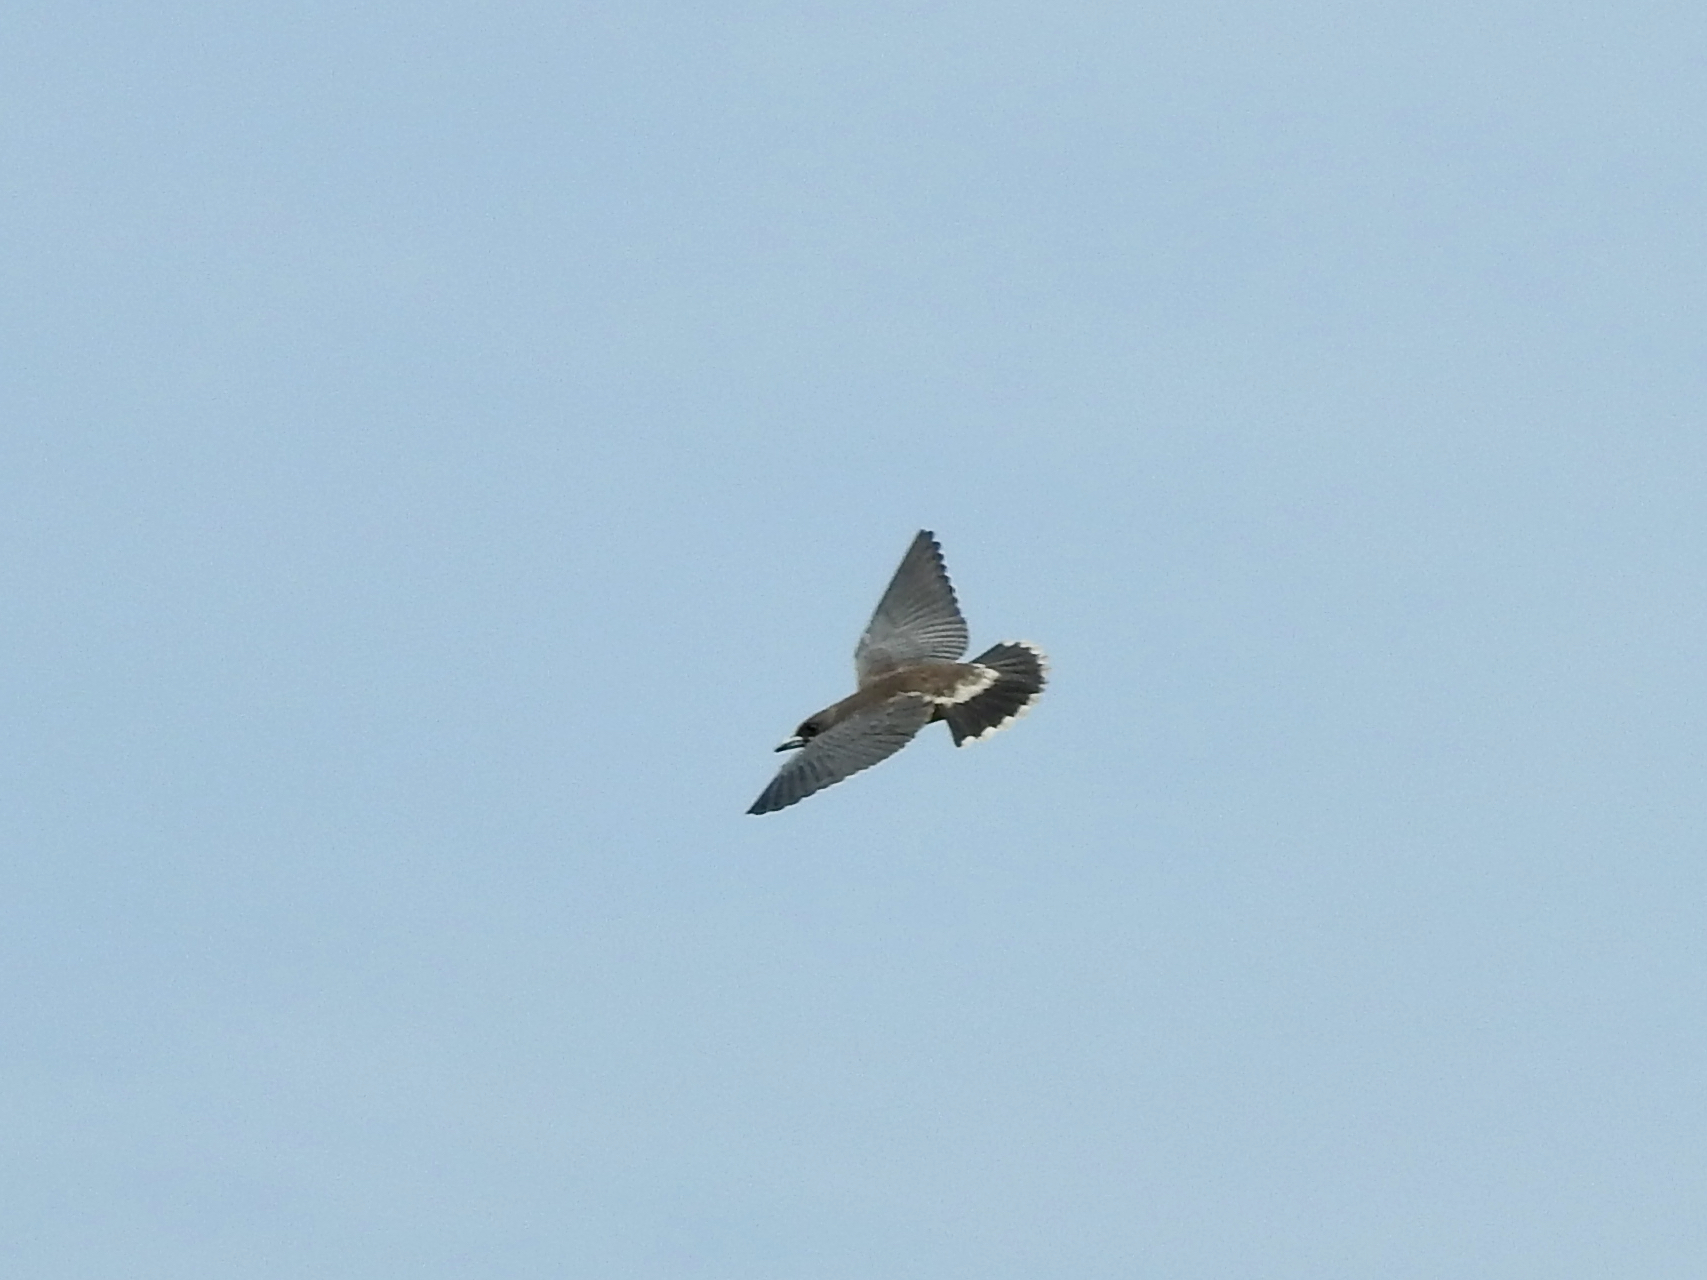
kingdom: Animalia
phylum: Chordata
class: Aves
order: Passeriformes
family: Artamidae
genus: Artamus
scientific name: Artamus fuscus
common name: Ashy woodswallow
